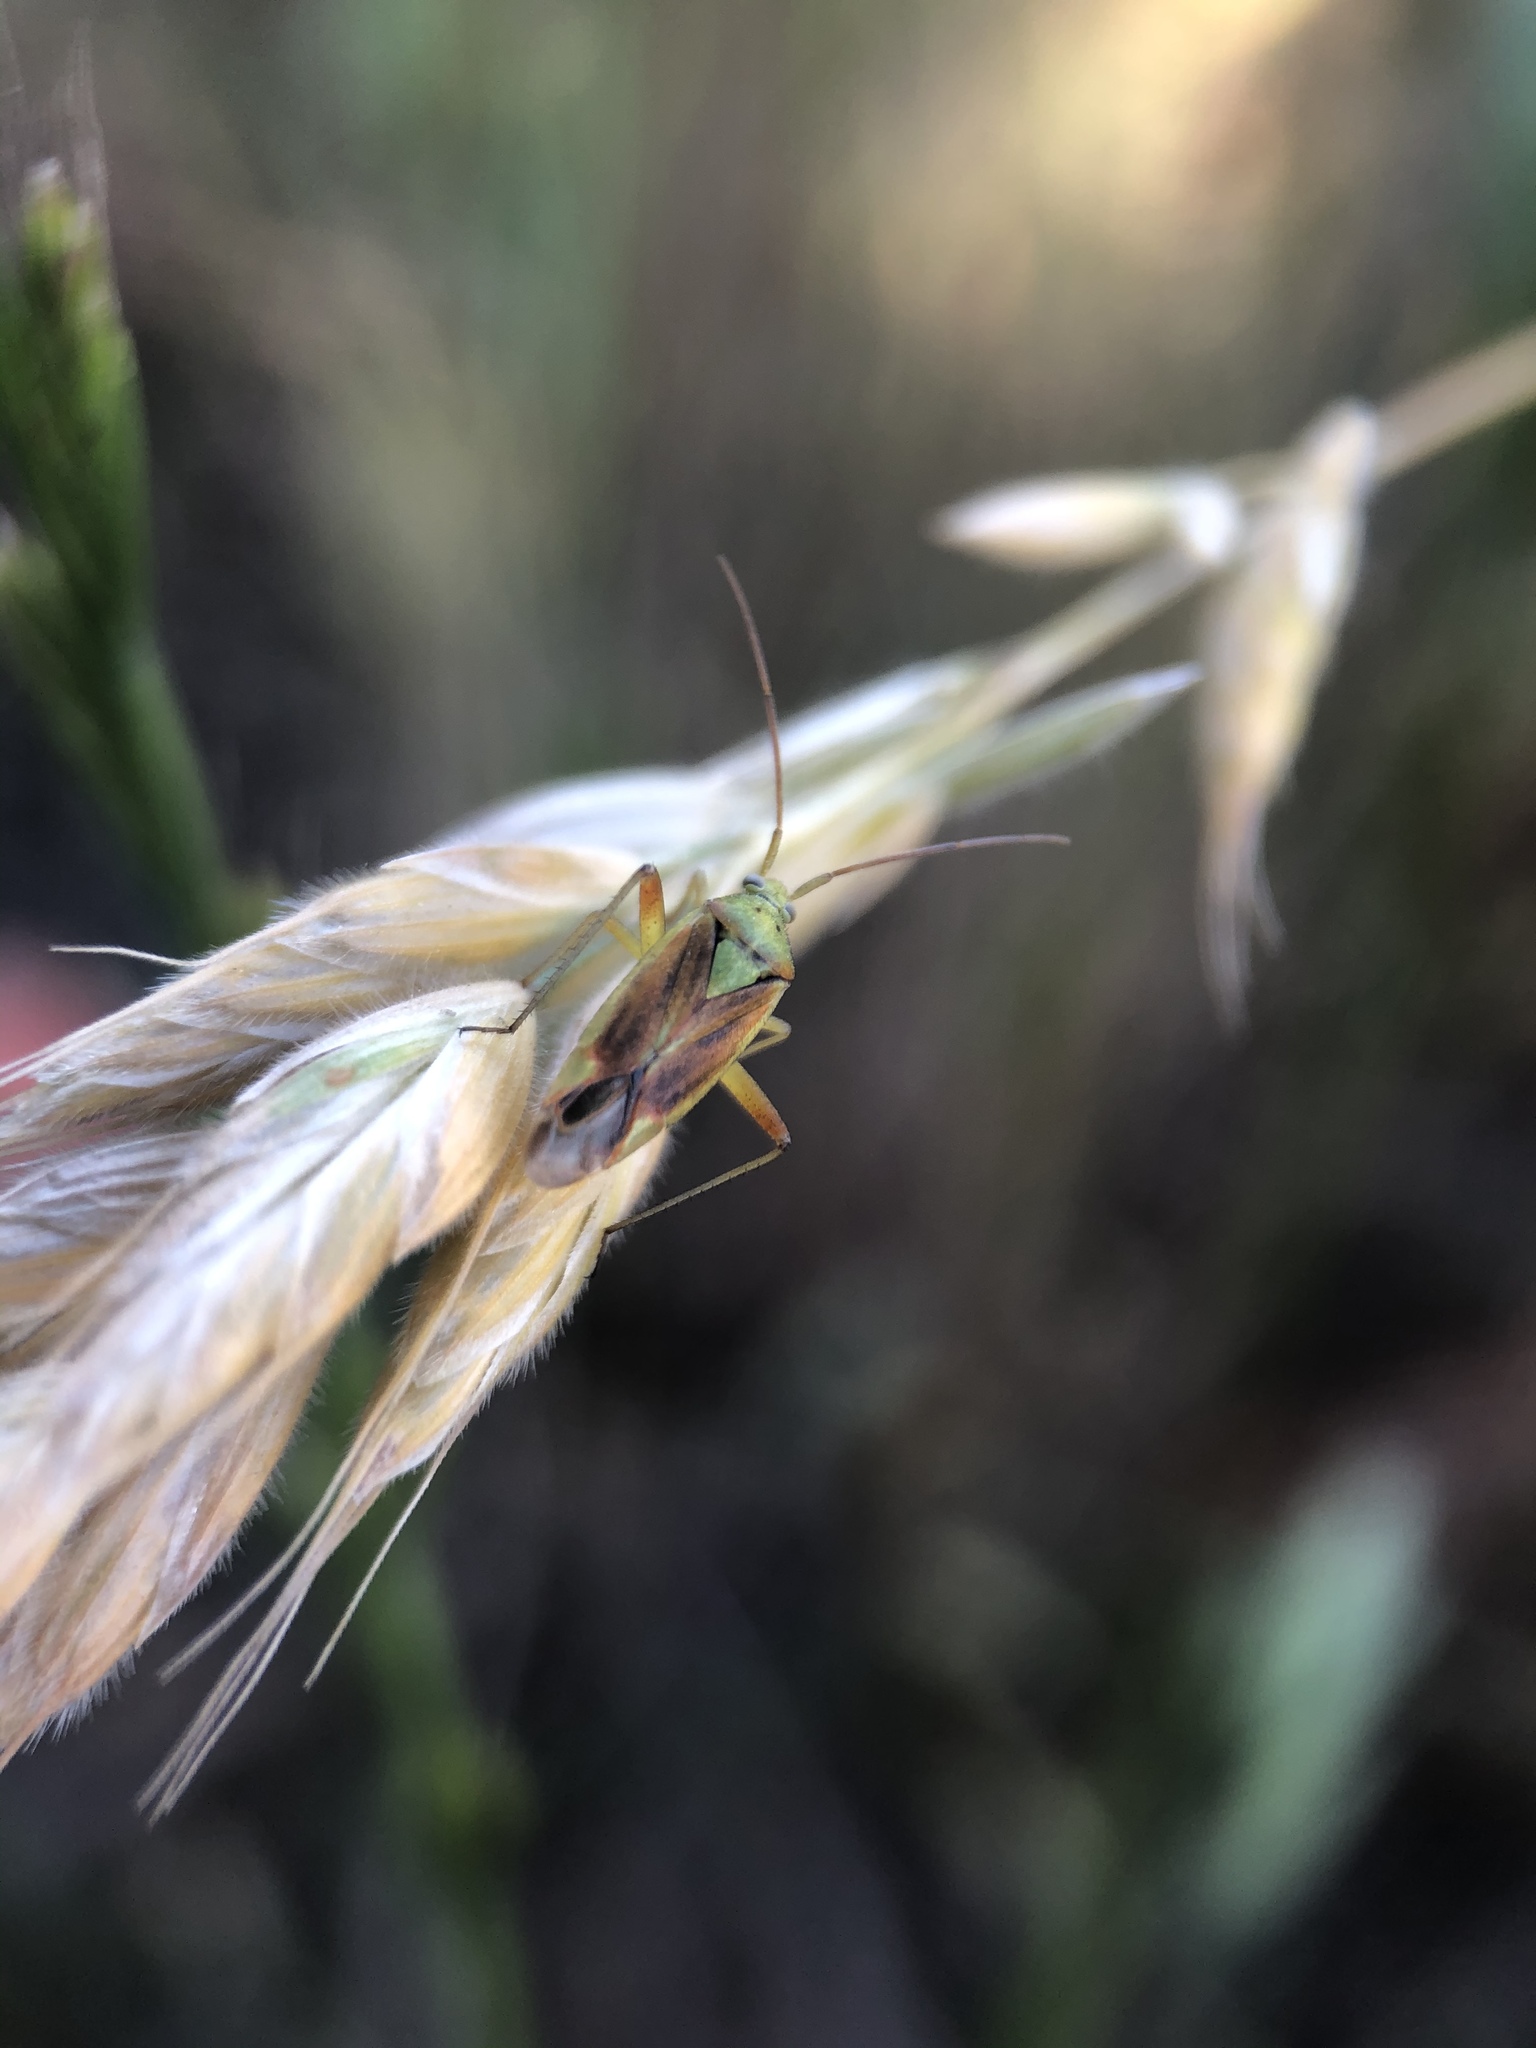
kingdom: Animalia
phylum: Arthropoda
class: Insecta
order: Hemiptera
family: Miridae
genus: Closterotomus
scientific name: Closterotomus norvegicus
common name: Plant bug
